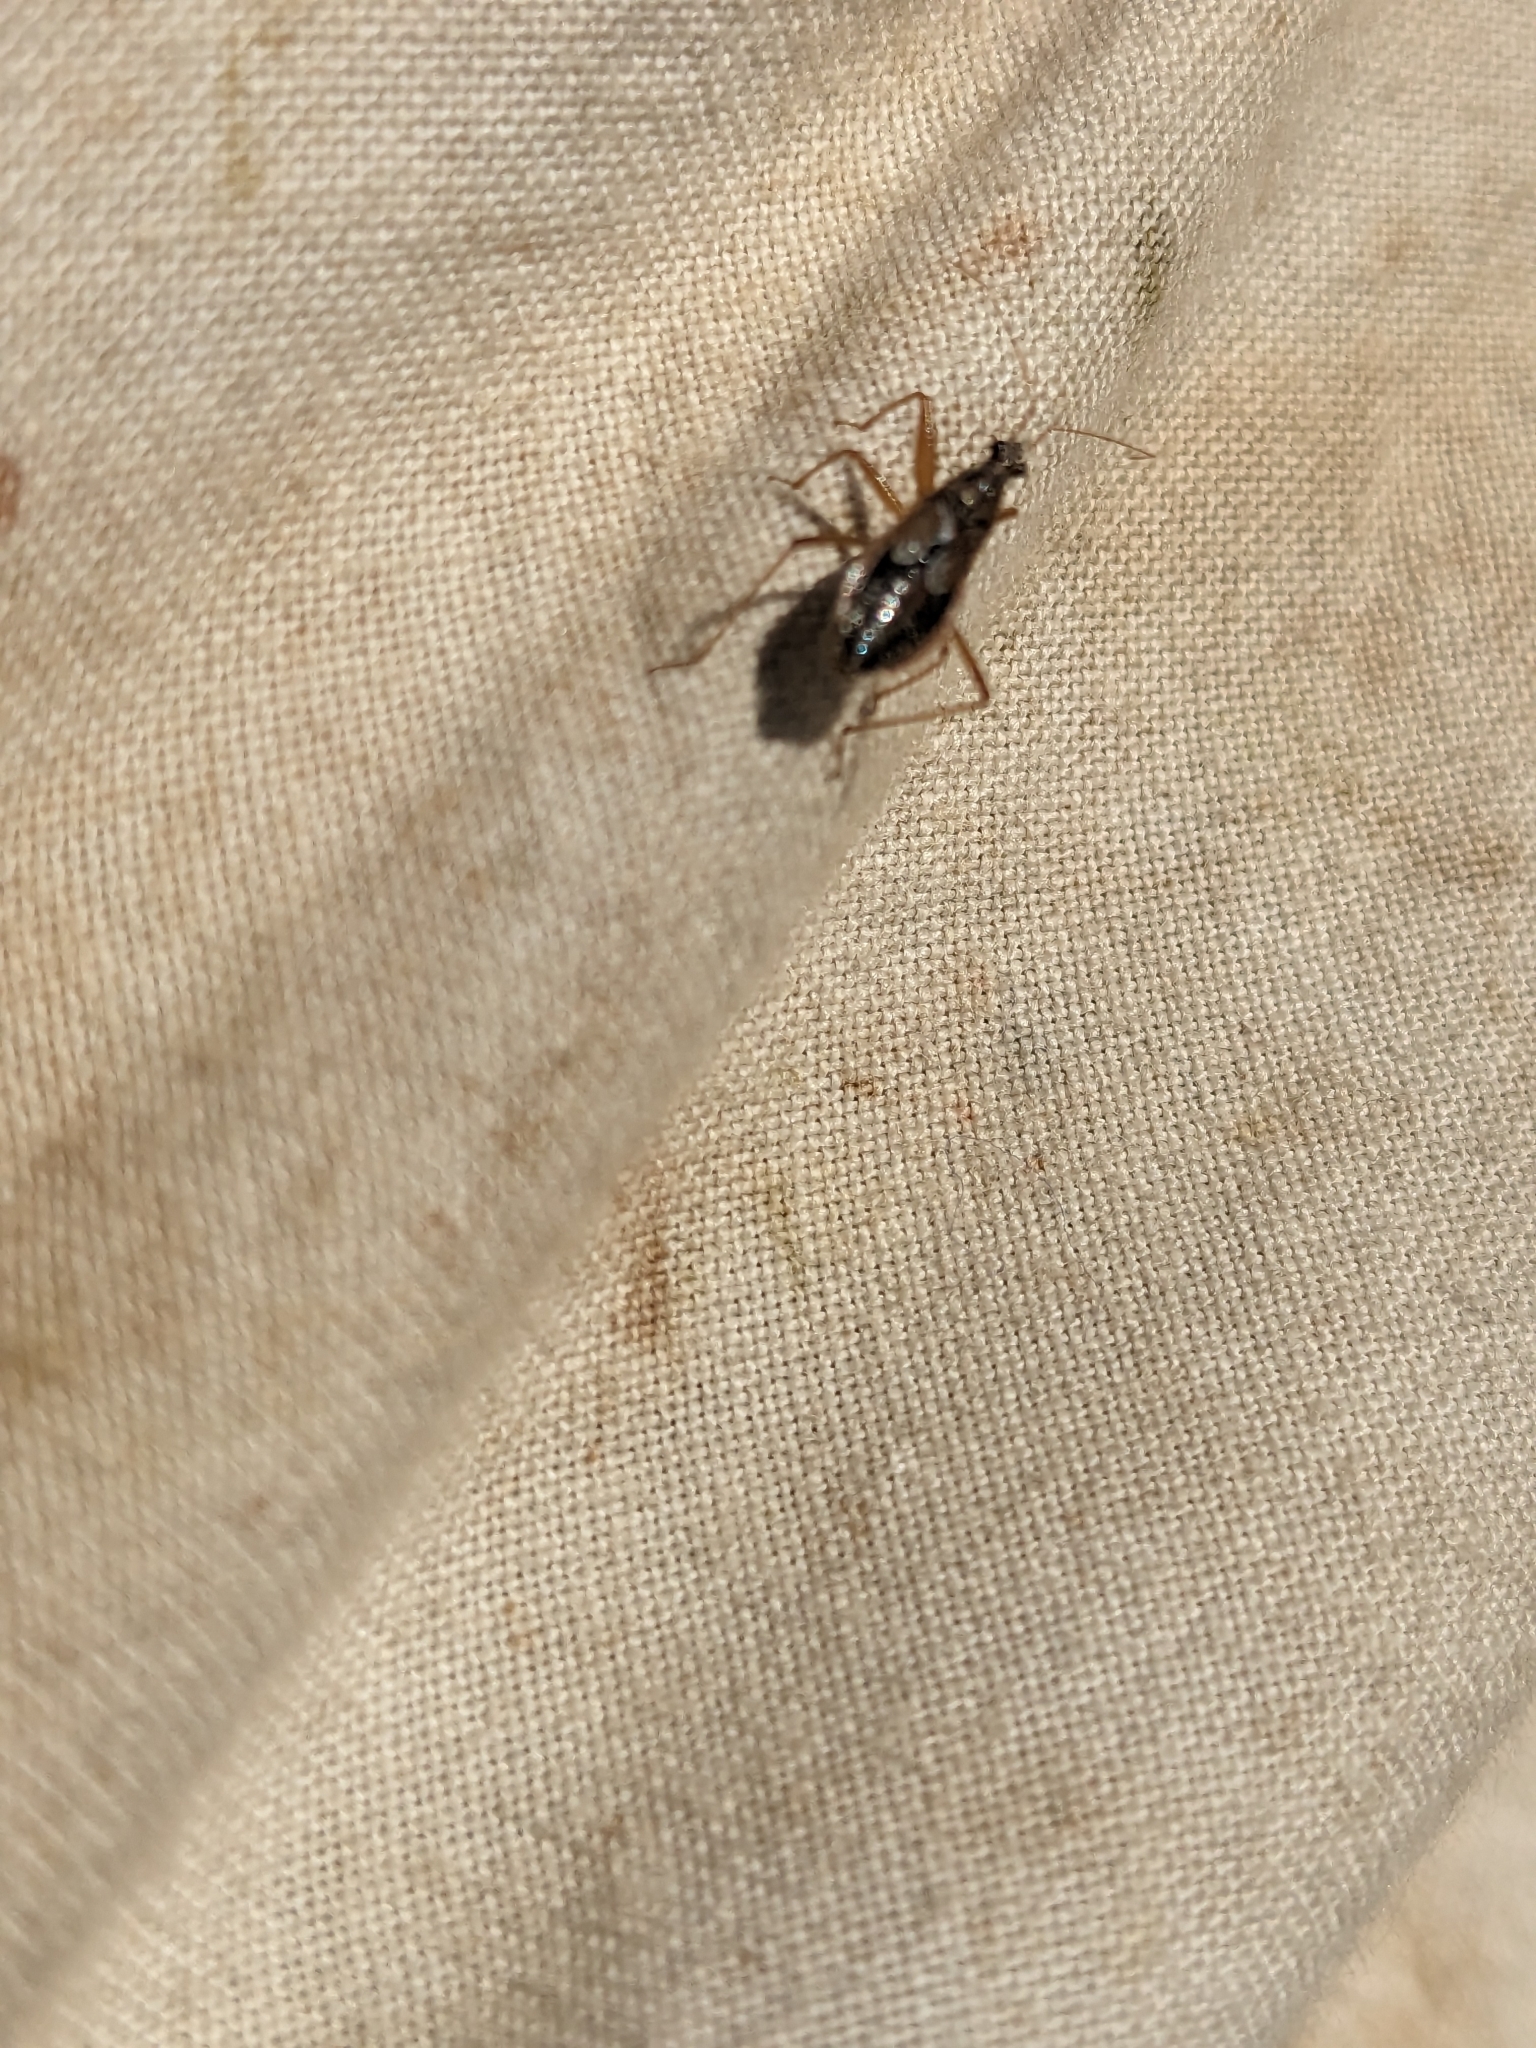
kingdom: Animalia
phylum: Arthropoda
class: Insecta
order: Hemiptera
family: Nabidae
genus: Nabis
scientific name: Nabis flavomarginatus
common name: Broad damselbug
